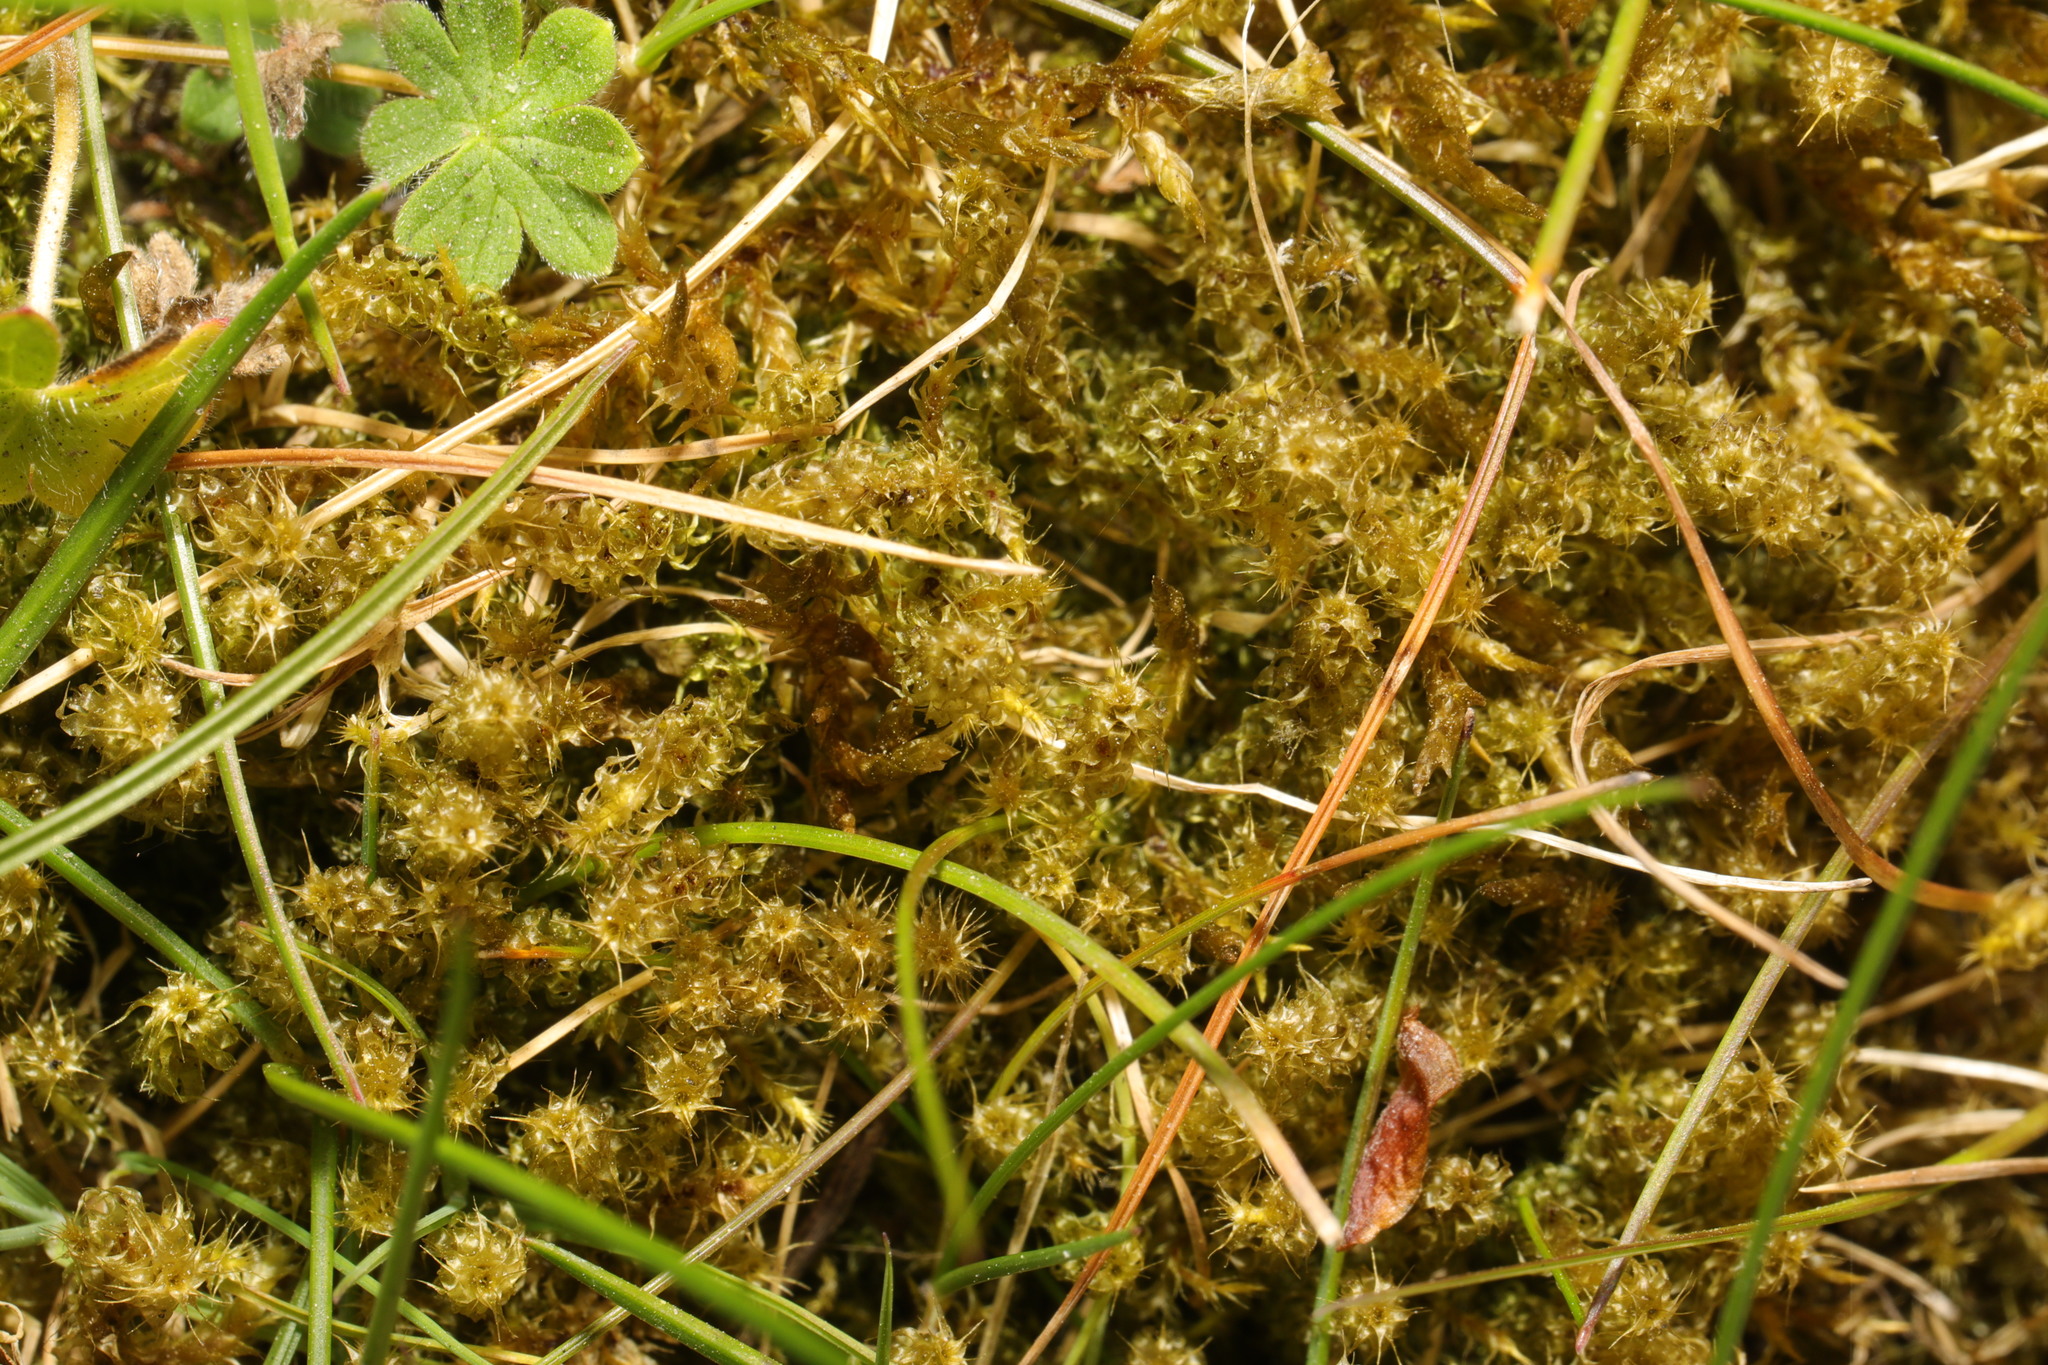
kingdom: Plantae
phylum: Bryophyta
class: Bryopsida
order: Hypnales
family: Hylocomiaceae
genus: Rhytidiadelphus
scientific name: Rhytidiadelphus squarrosus
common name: Springy turf-moss
